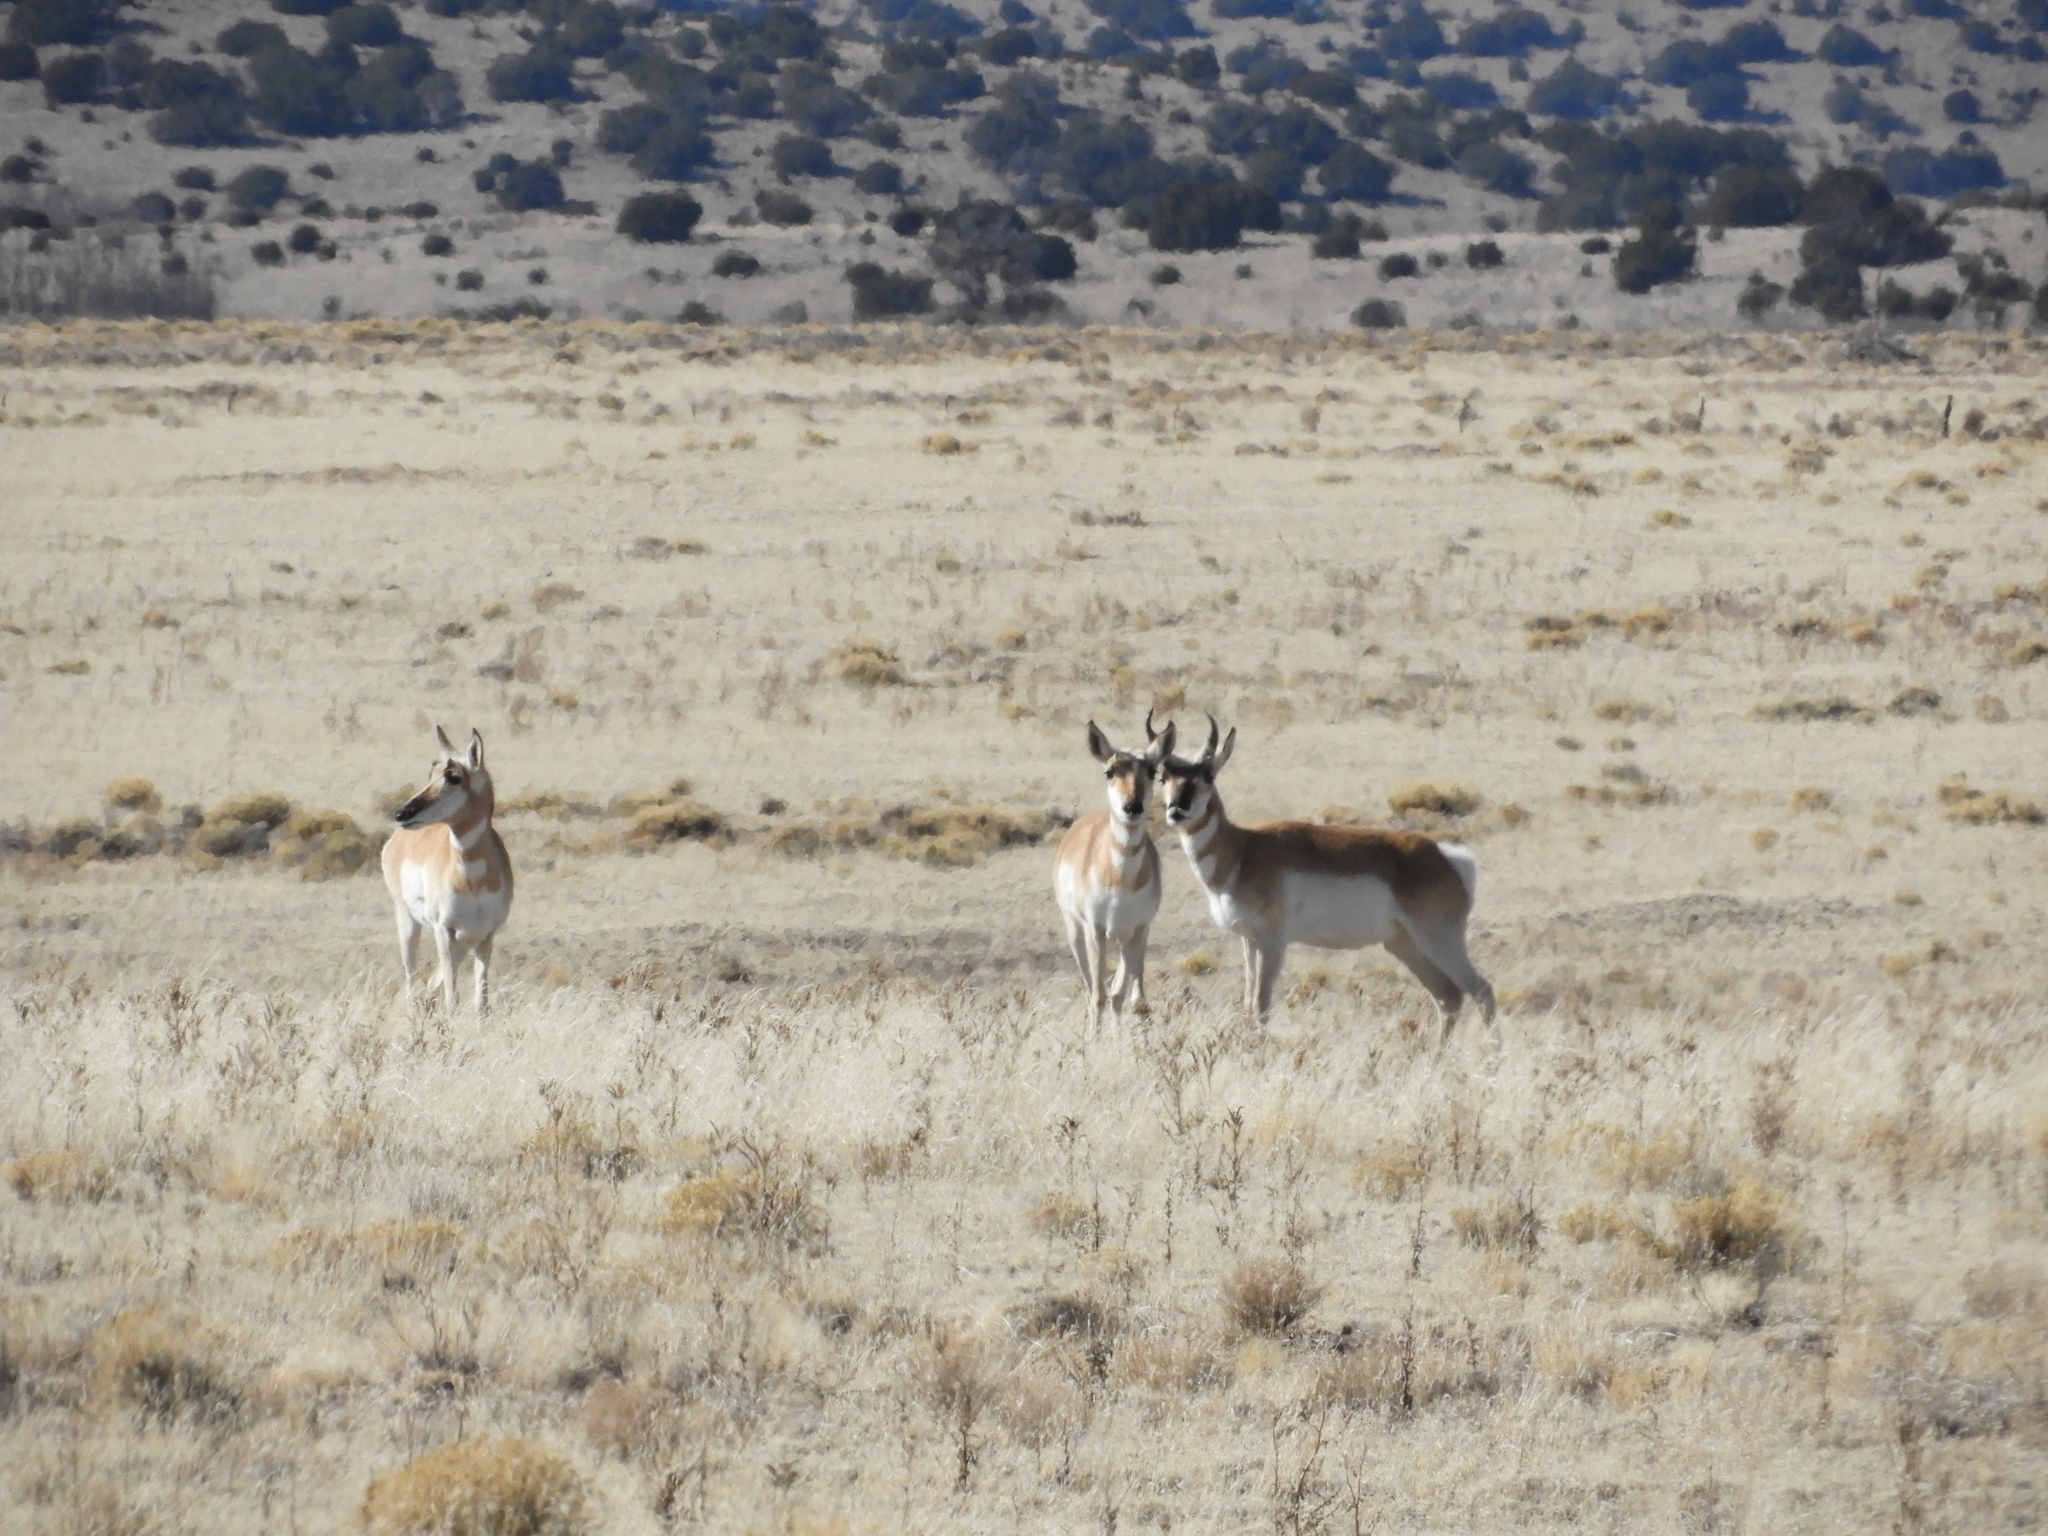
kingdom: Animalia
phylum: Chordata
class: Mammalia
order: Artiodactyla
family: Antilocapridae
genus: Antilocapra
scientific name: Antilocapra americana
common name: Pronghorn
